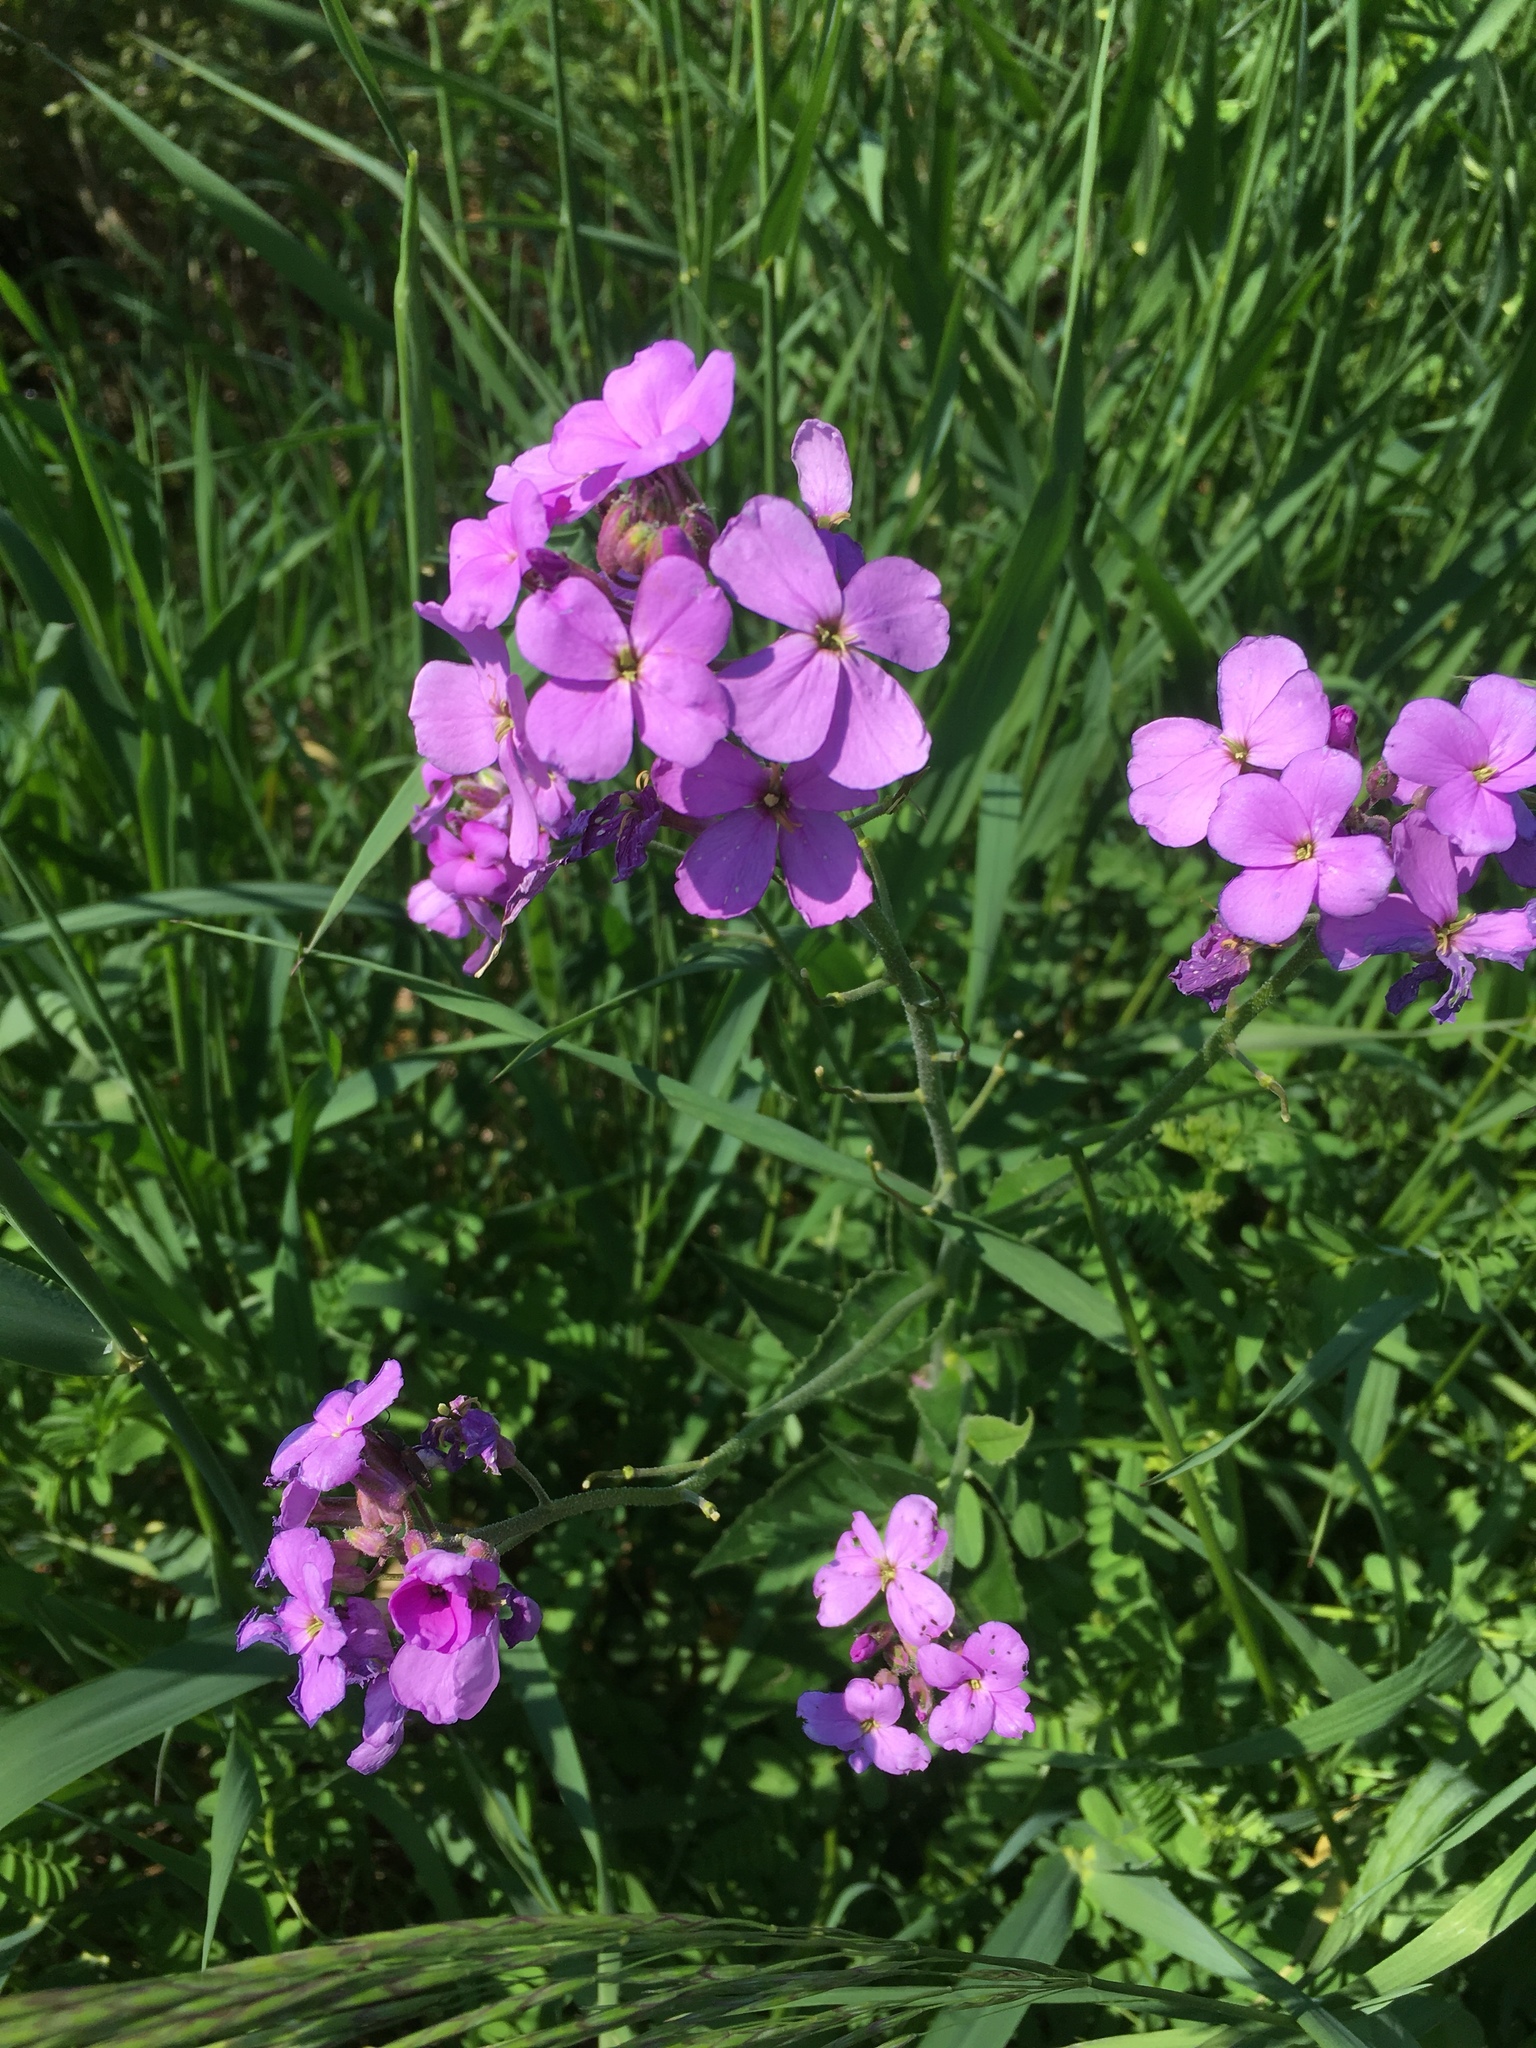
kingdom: Plantae
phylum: Tracheophyta
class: Magnoliopsida
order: Brassicales
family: Brassicaceae
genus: Hesperis
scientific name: Hesperis matronalis
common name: Dame's-violet
